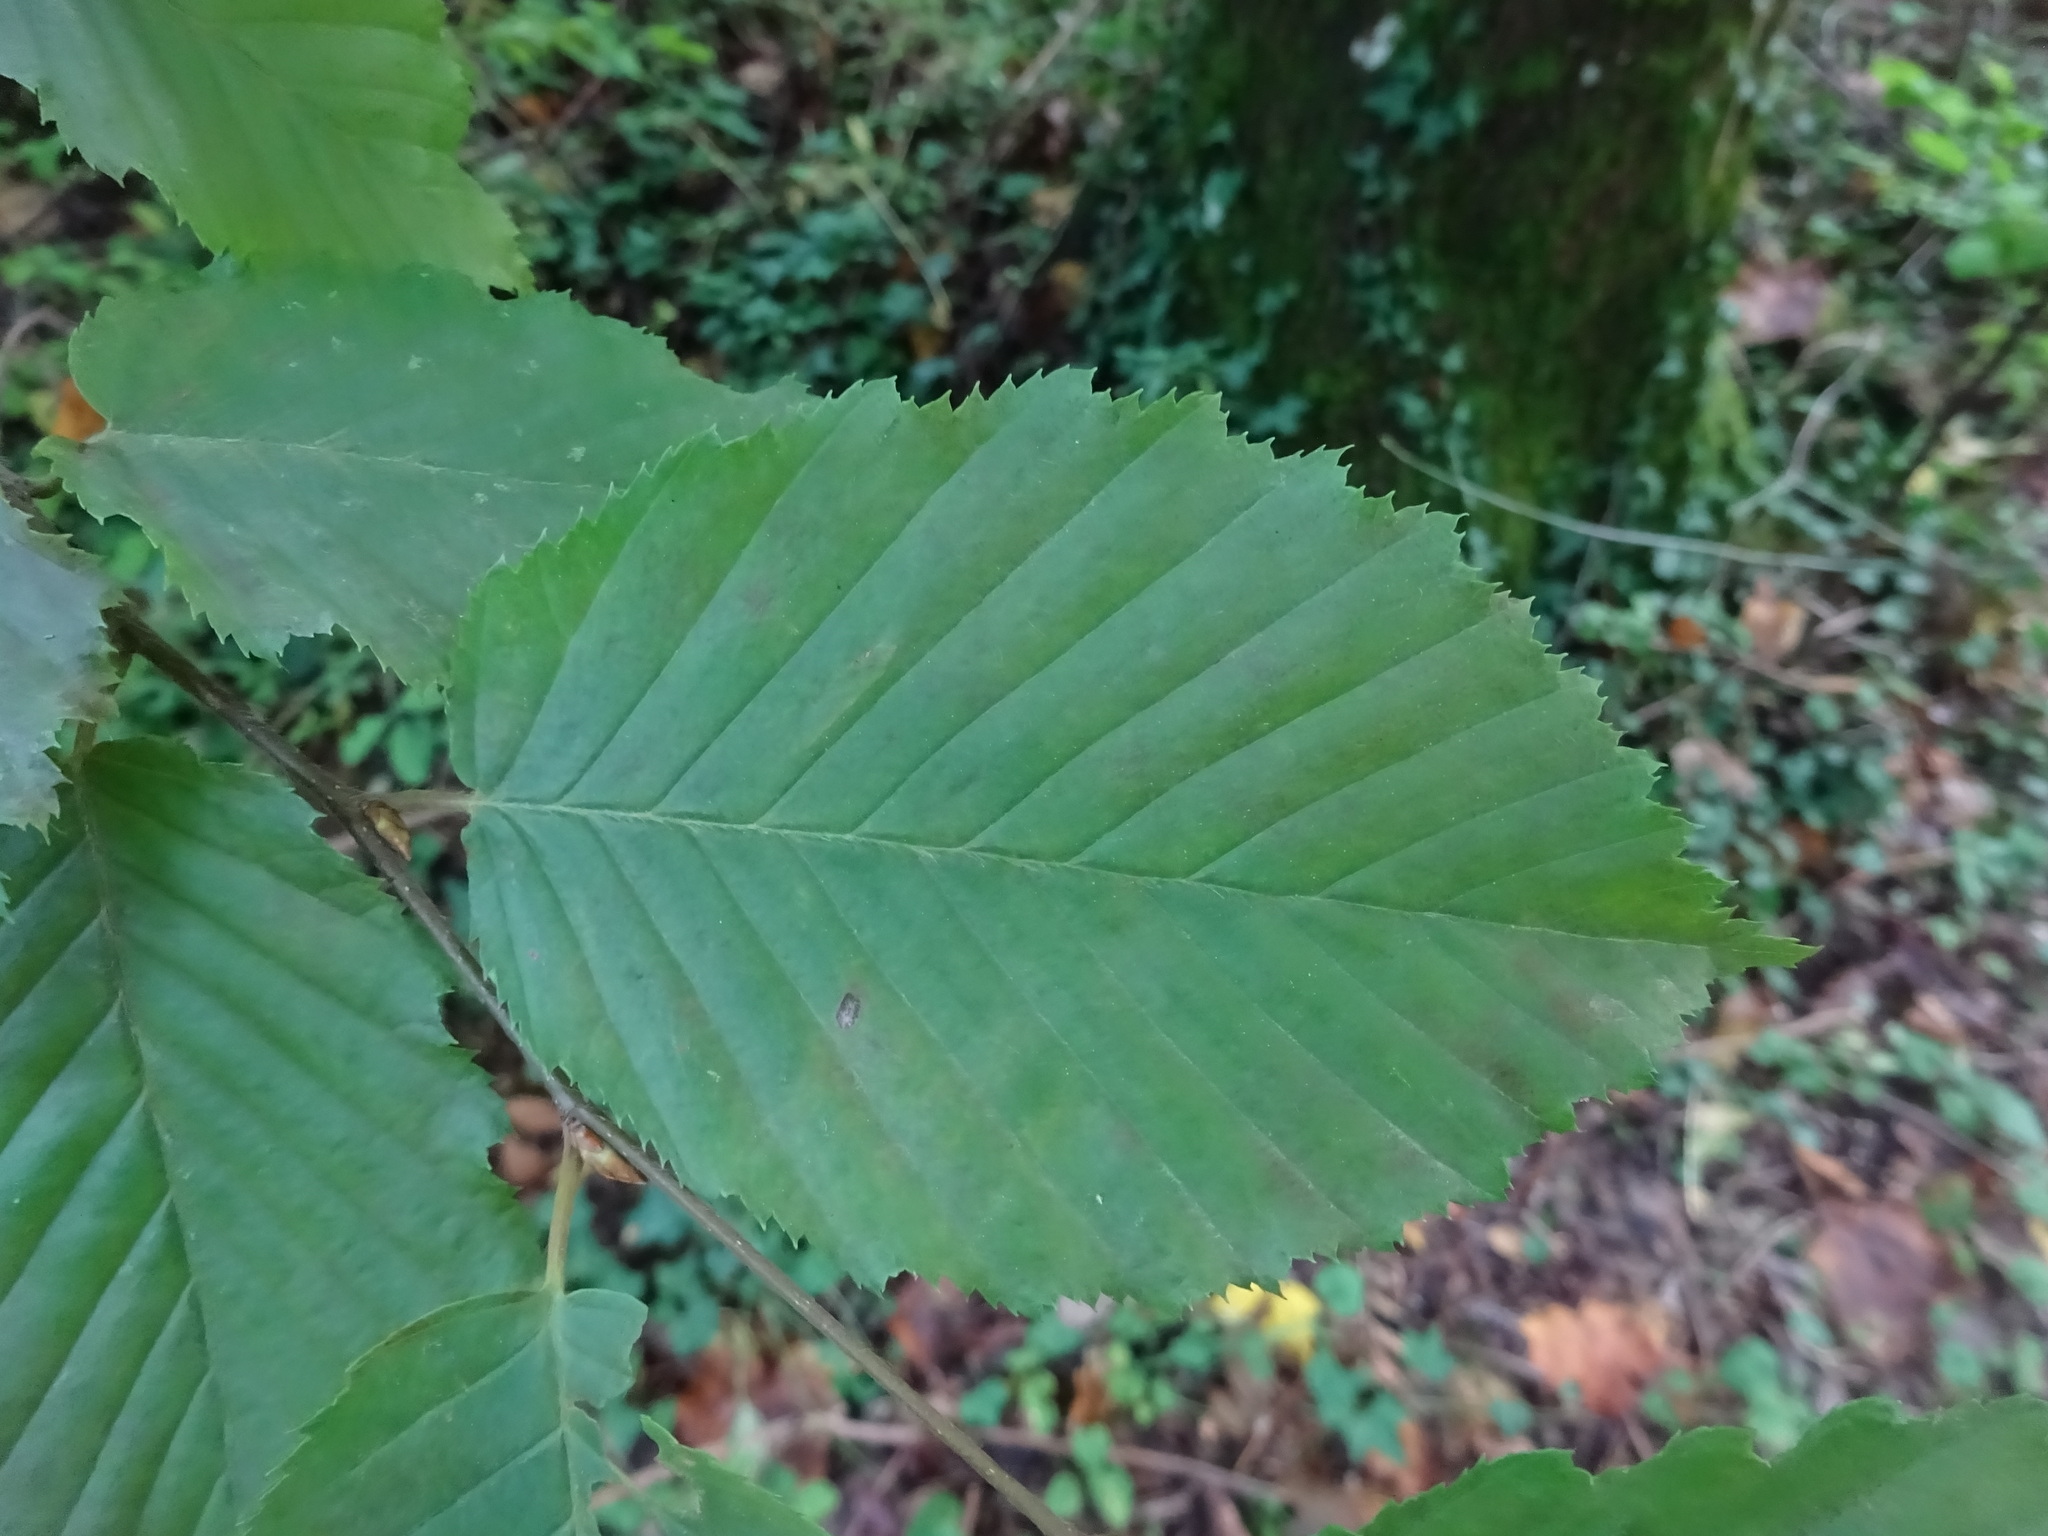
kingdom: Plantae
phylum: Tracheophyta
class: Magnoliopsida
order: Fagales
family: Betulaceae
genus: Carpinus
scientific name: Carpinus betulus
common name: Hornbeam
